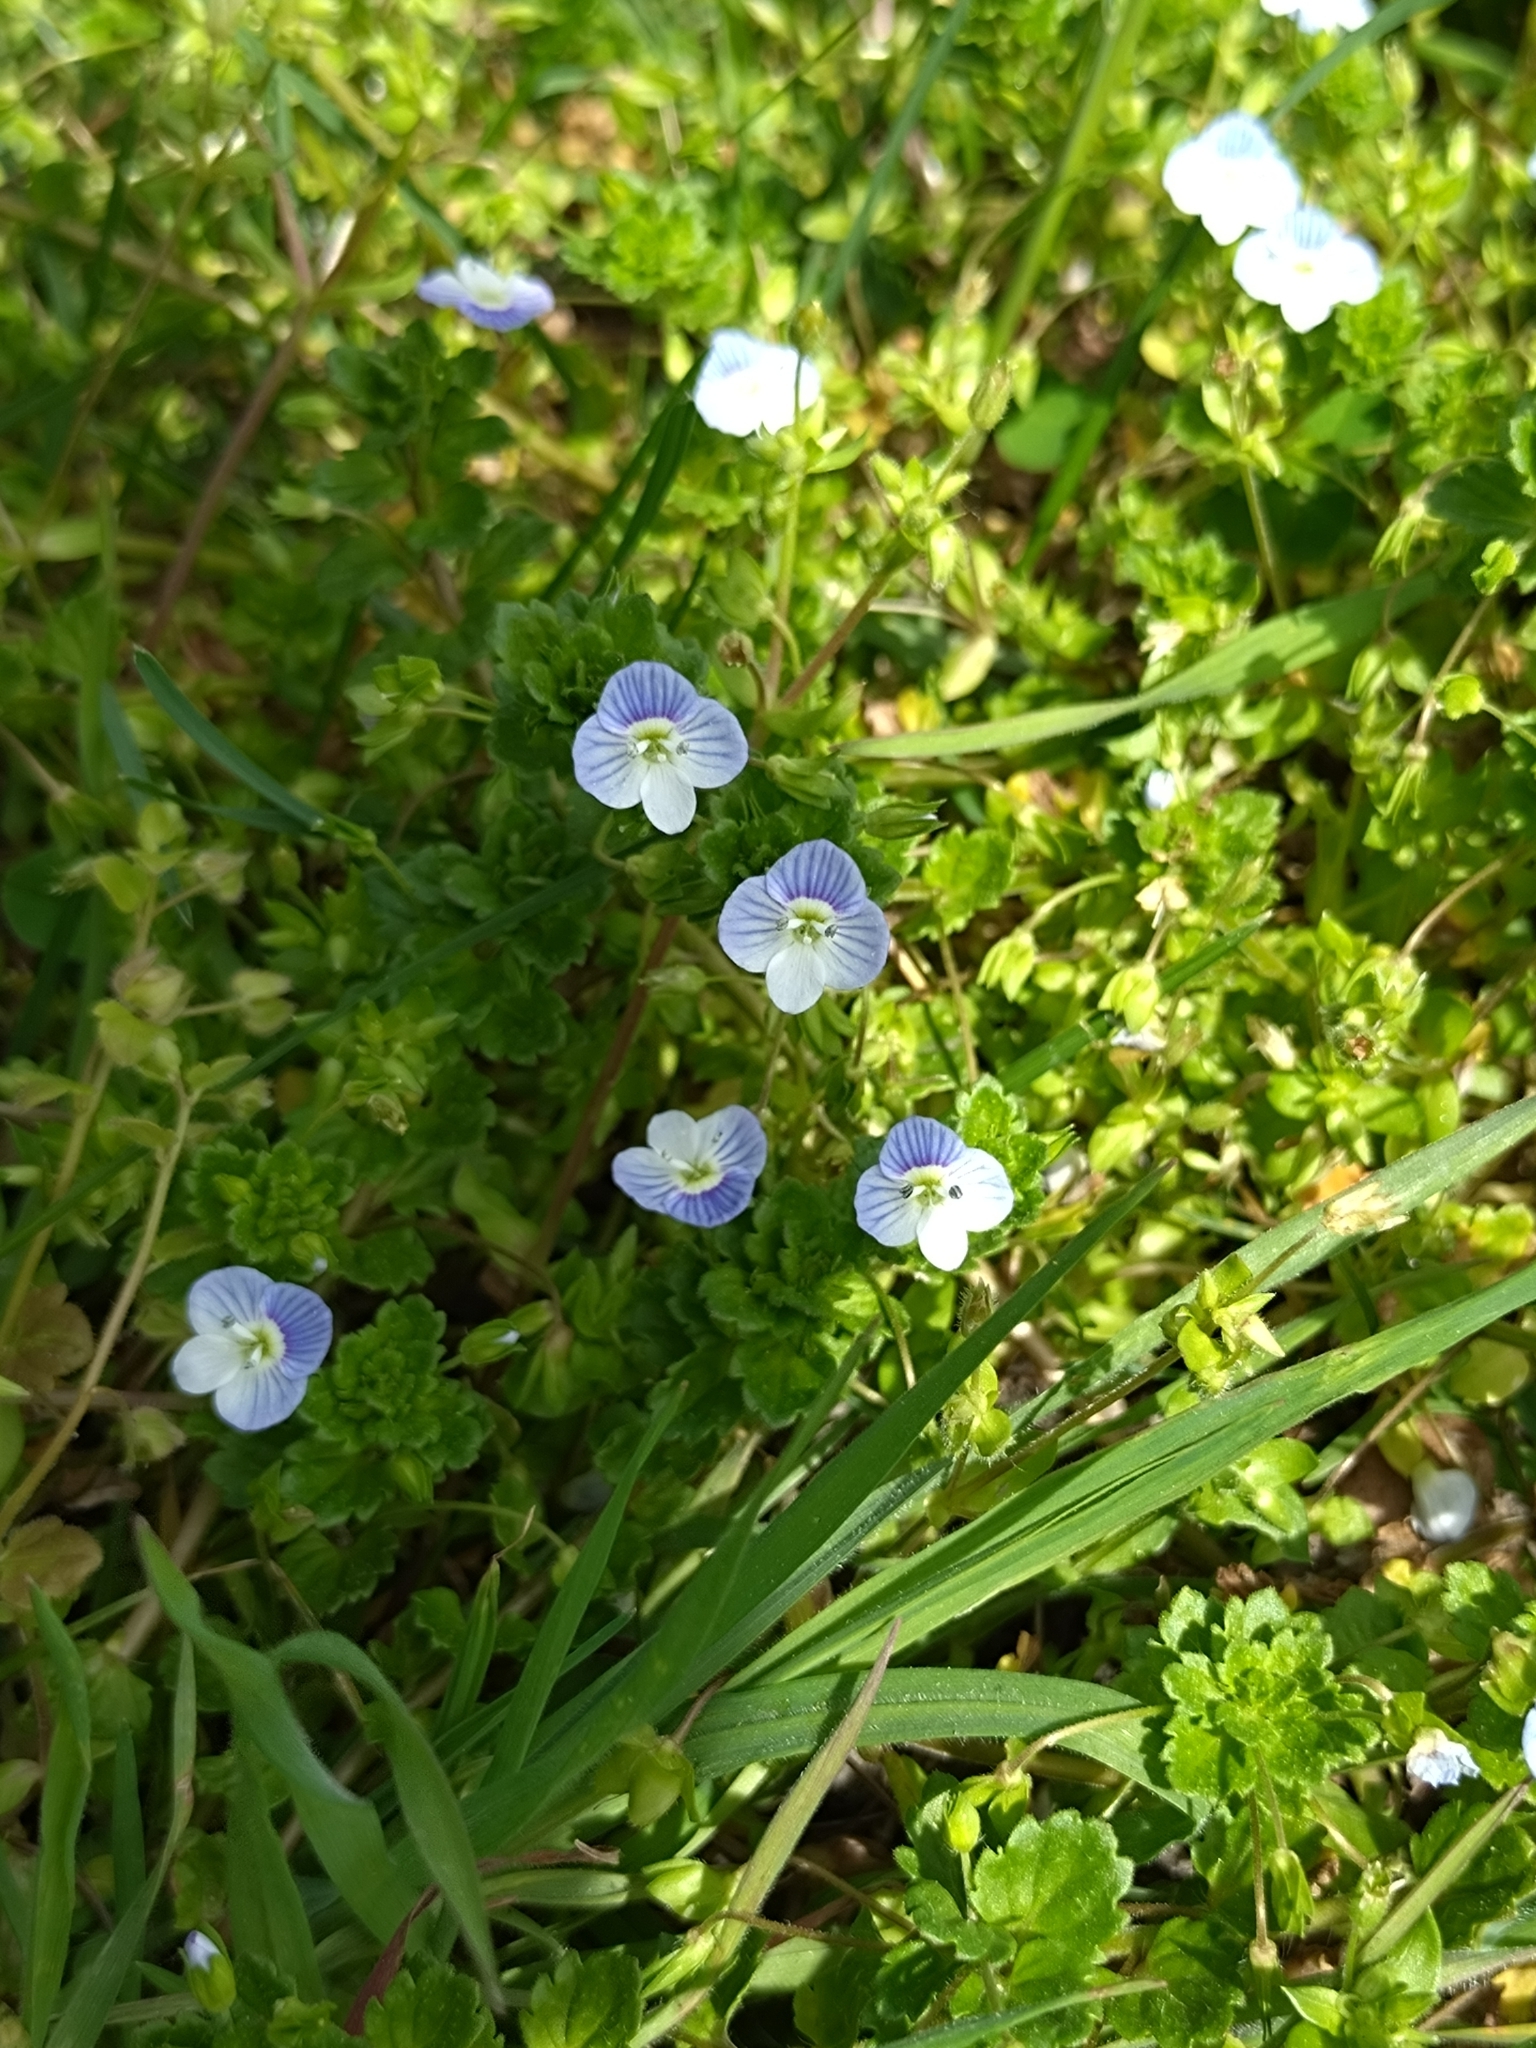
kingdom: Plantae
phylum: Tracheophyta
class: Magnoliopsida
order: Lamiales
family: Plantaginaceae
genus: Veronica
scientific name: Veronica persica
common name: Common field-speedwell
